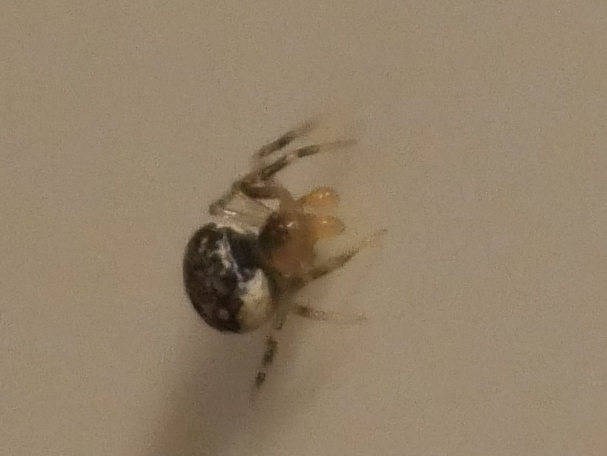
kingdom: Animalia
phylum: Arthropoda
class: Arachnida
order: Araneae
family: Theridiidae
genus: Paidiscura
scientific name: Paidiscura pallens
